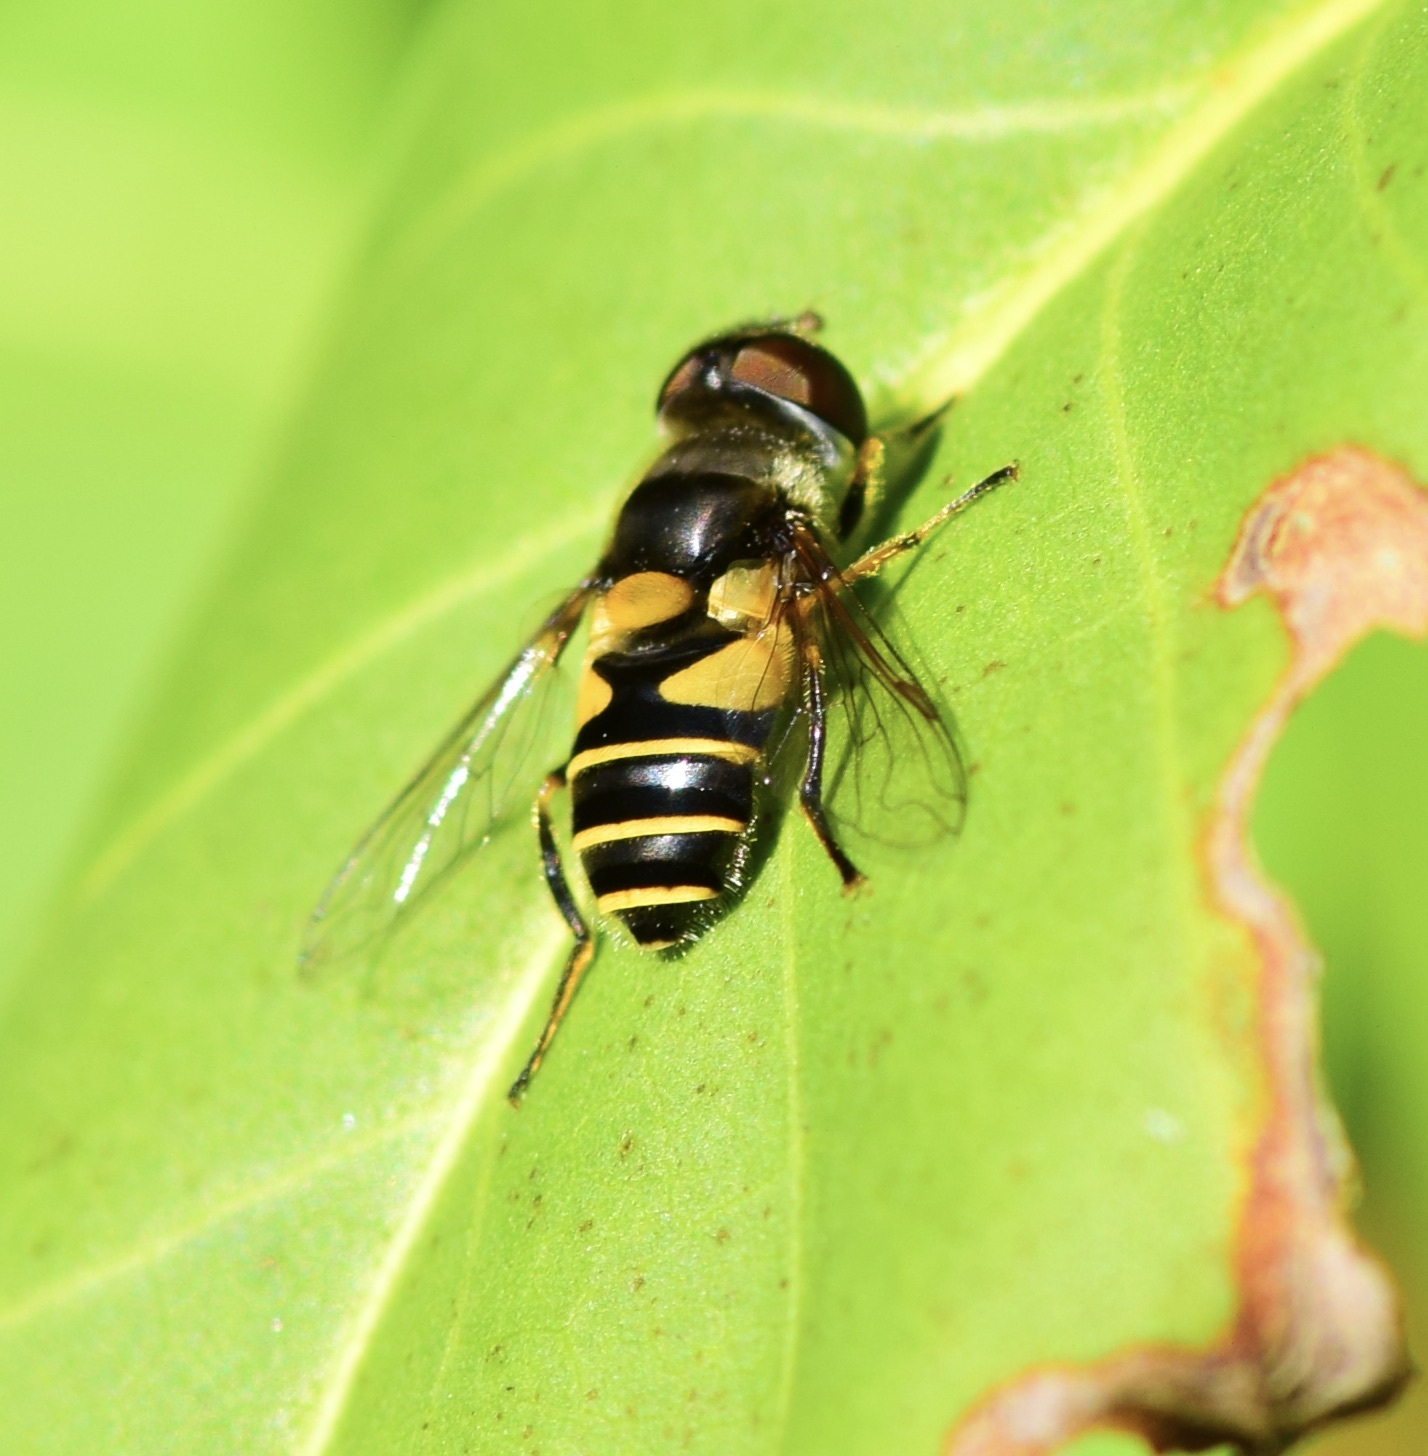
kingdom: Animalia
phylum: Arthropoda
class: Insecta
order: Diptera
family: Syrphidae
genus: Eristalis
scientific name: Eristalis transversa
